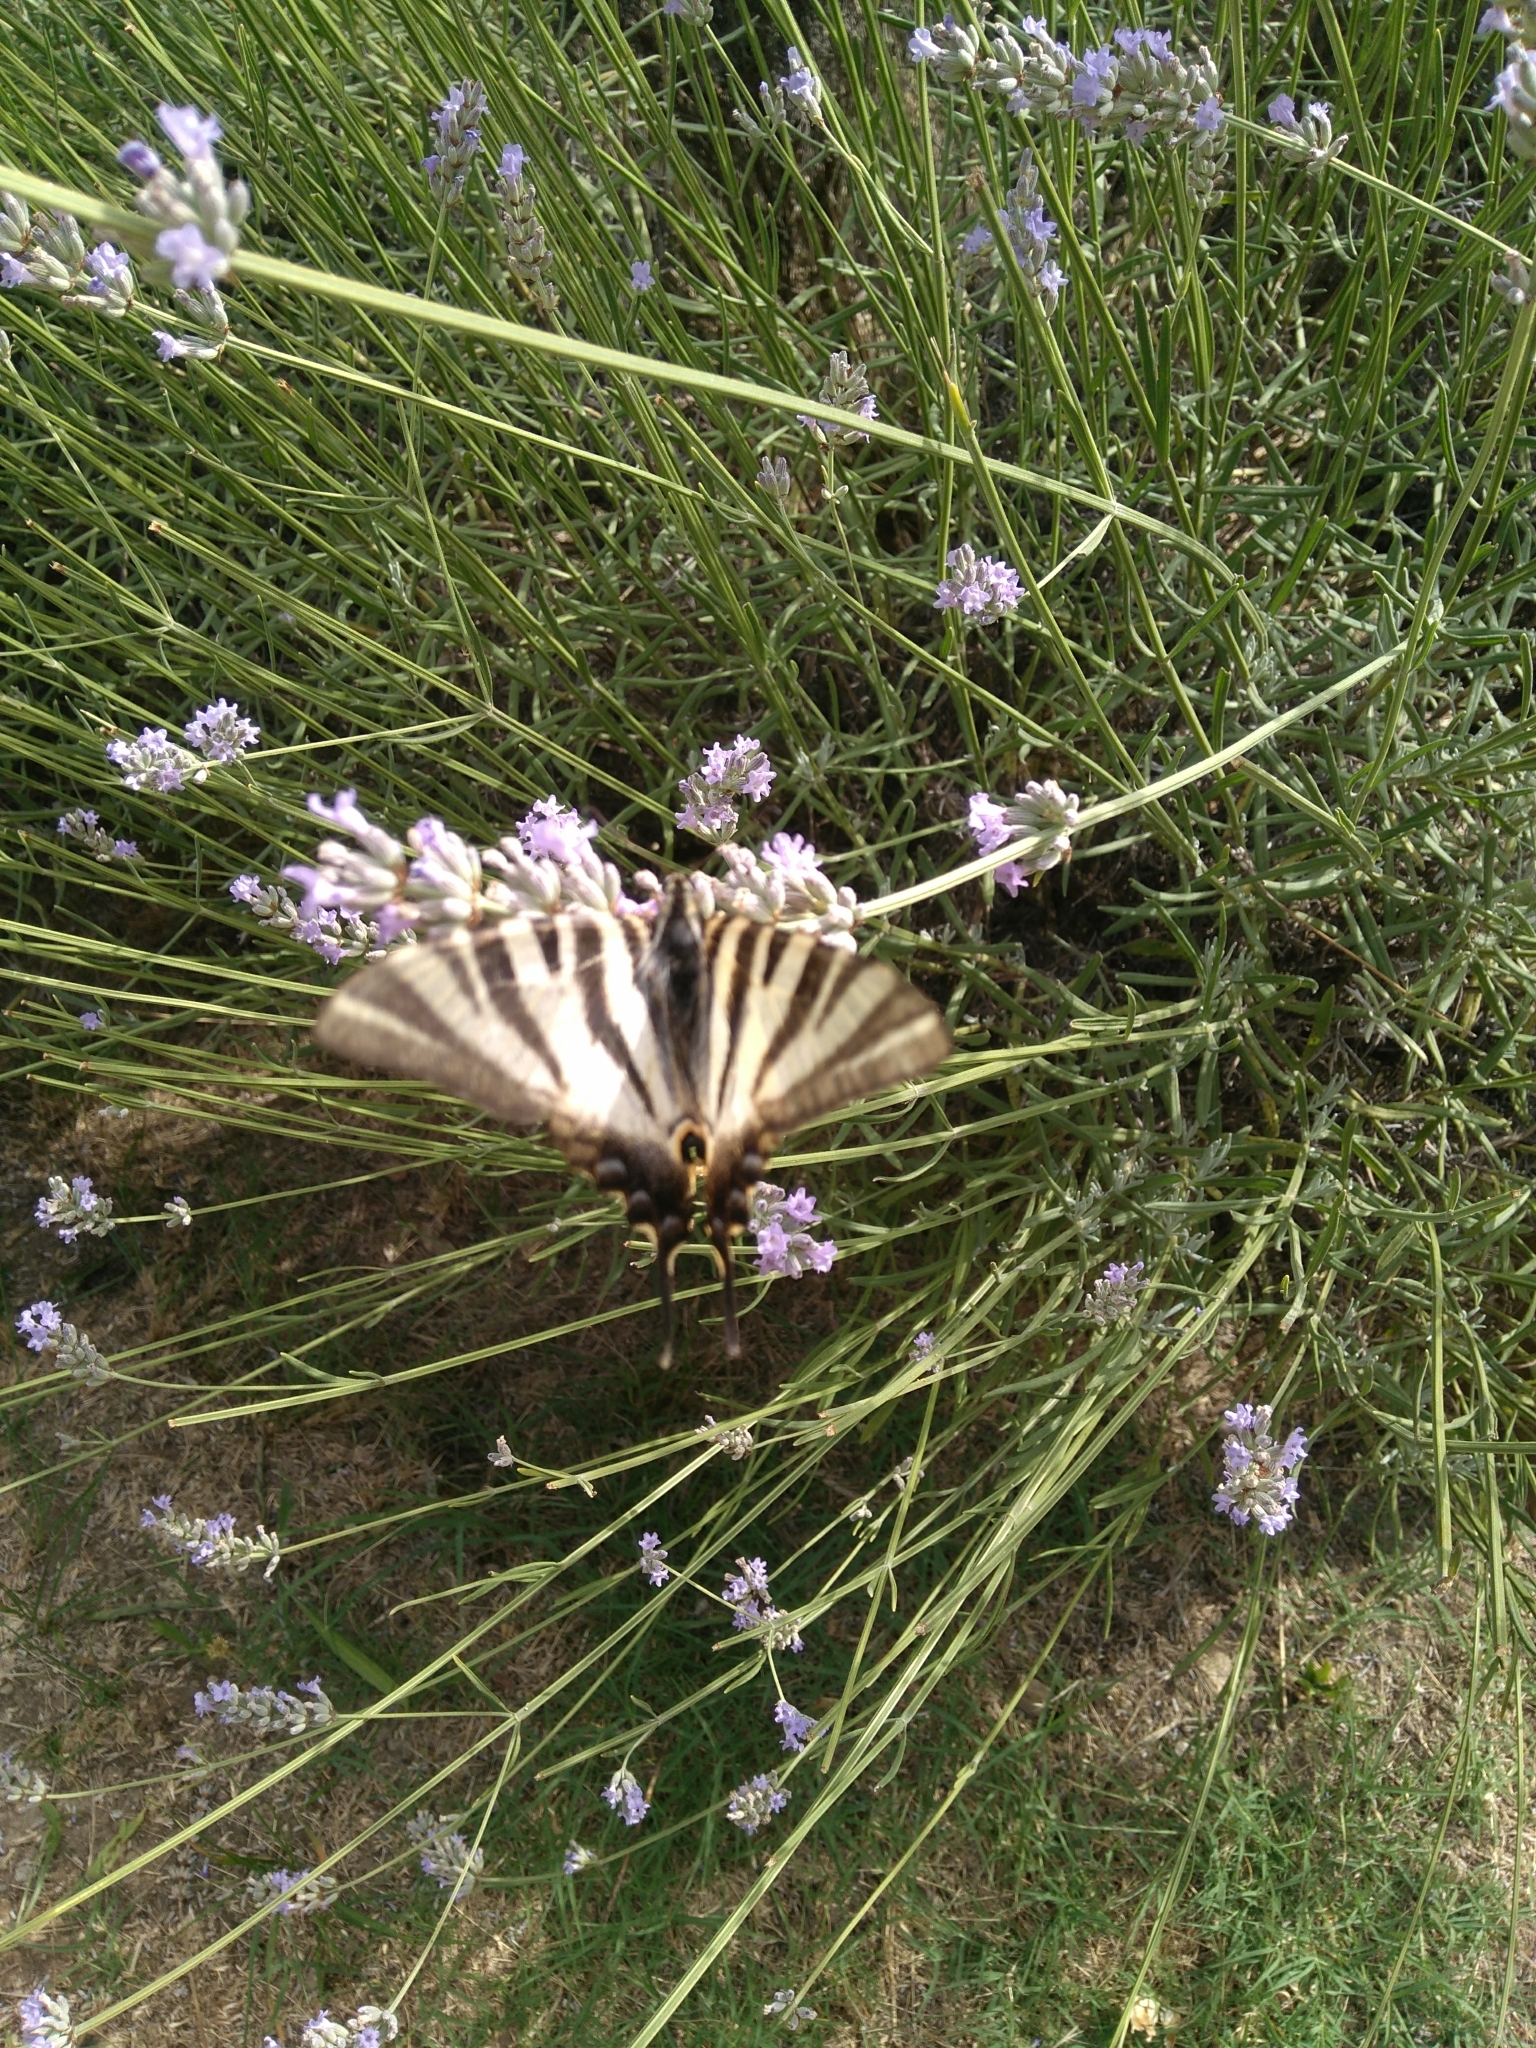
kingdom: Animalia
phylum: Arthropoda
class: Insecta
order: Lepidoptera
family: Papilionidae
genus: Iphiclides
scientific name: Iphiclides feisthamelii
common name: Iberian scarce swallowtail
